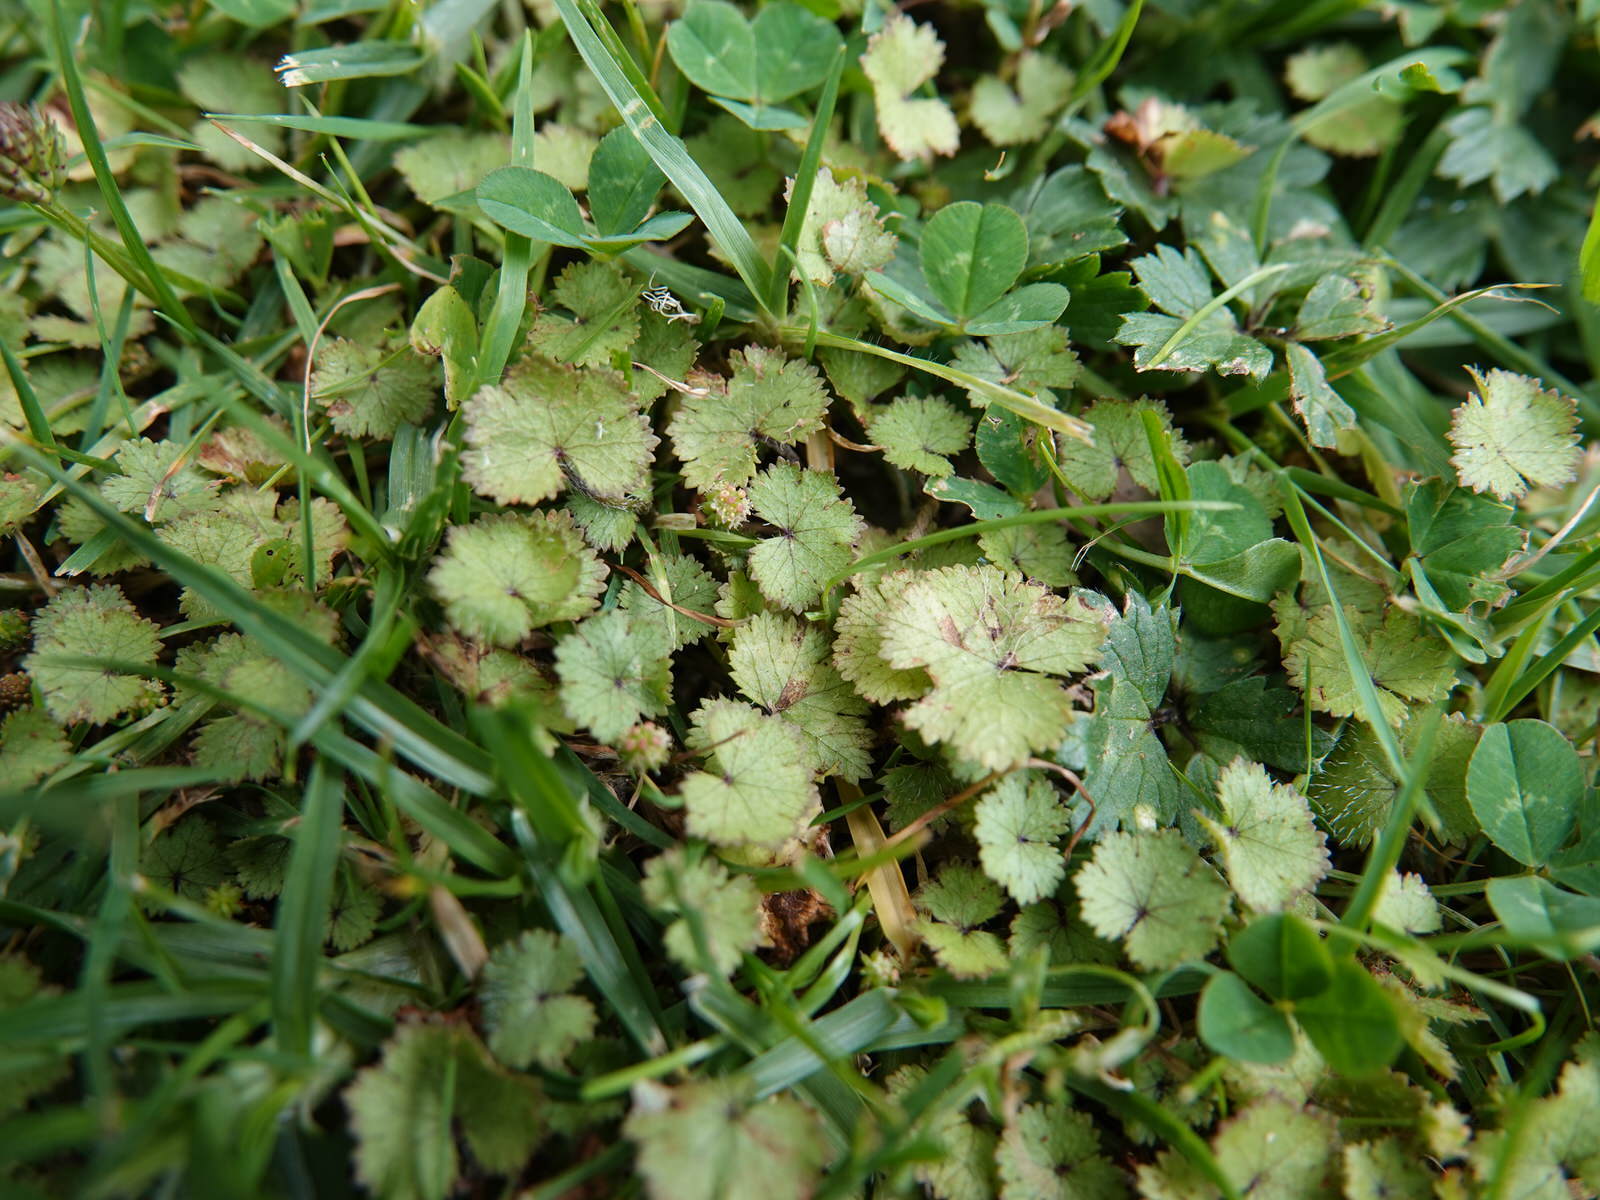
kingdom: Plantae
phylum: Tracheophyta
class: Magnoliopsida
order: Apiales
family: Araliaceae
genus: Hydrocotyle
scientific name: Hydrocotyle moschata
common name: Hairy pennywort
